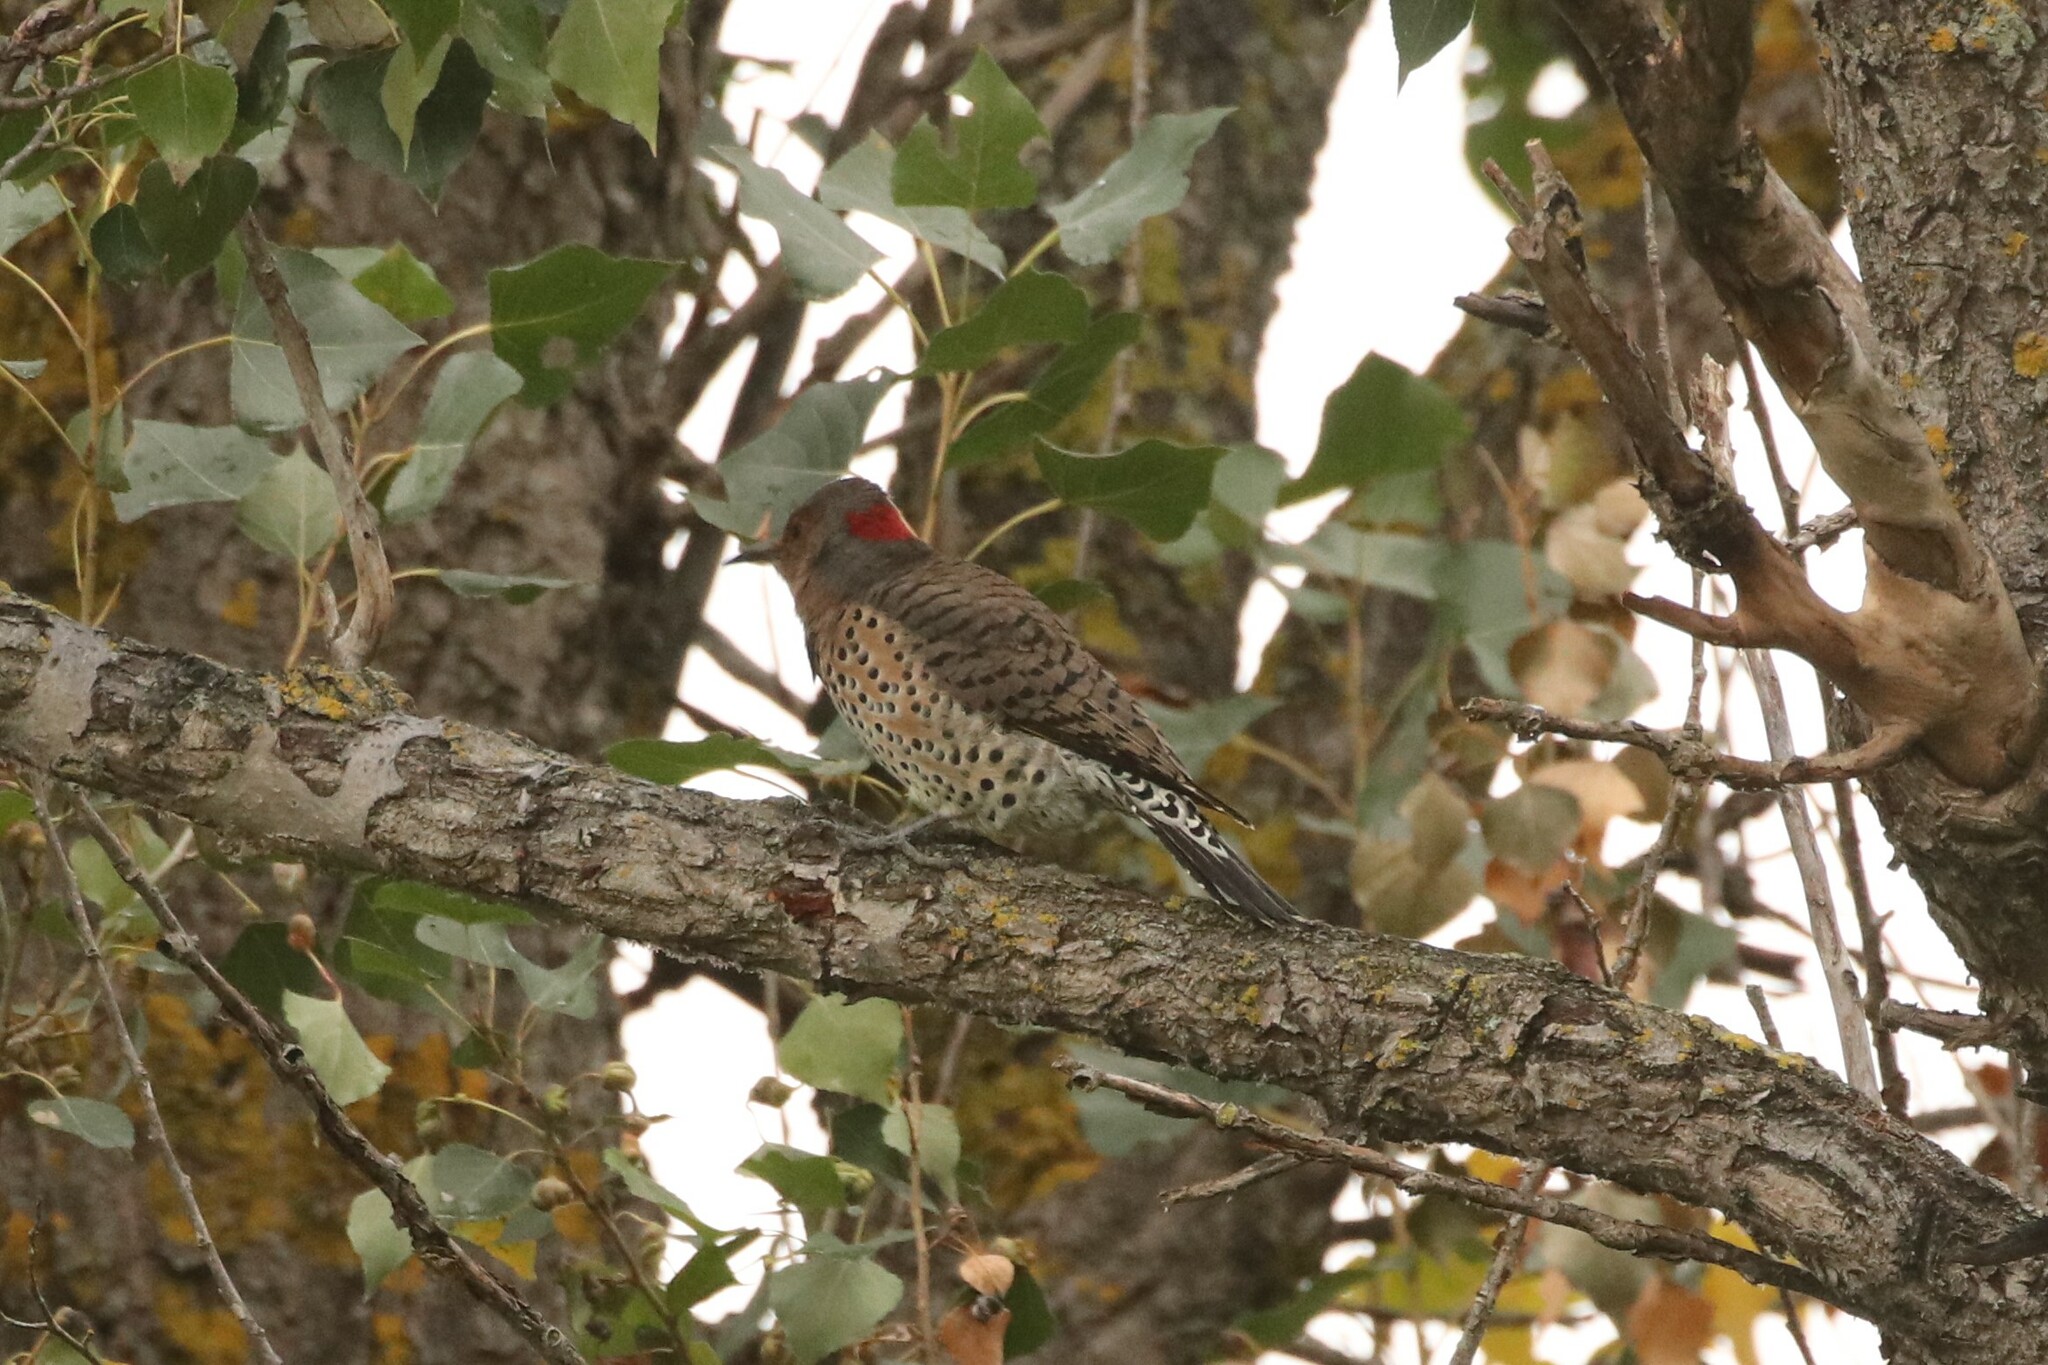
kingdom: Animalia
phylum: Chordata
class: Aves
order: Piciformes
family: Picidae
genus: Colaptes
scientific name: Colaptes auratus
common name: Northern flicker
